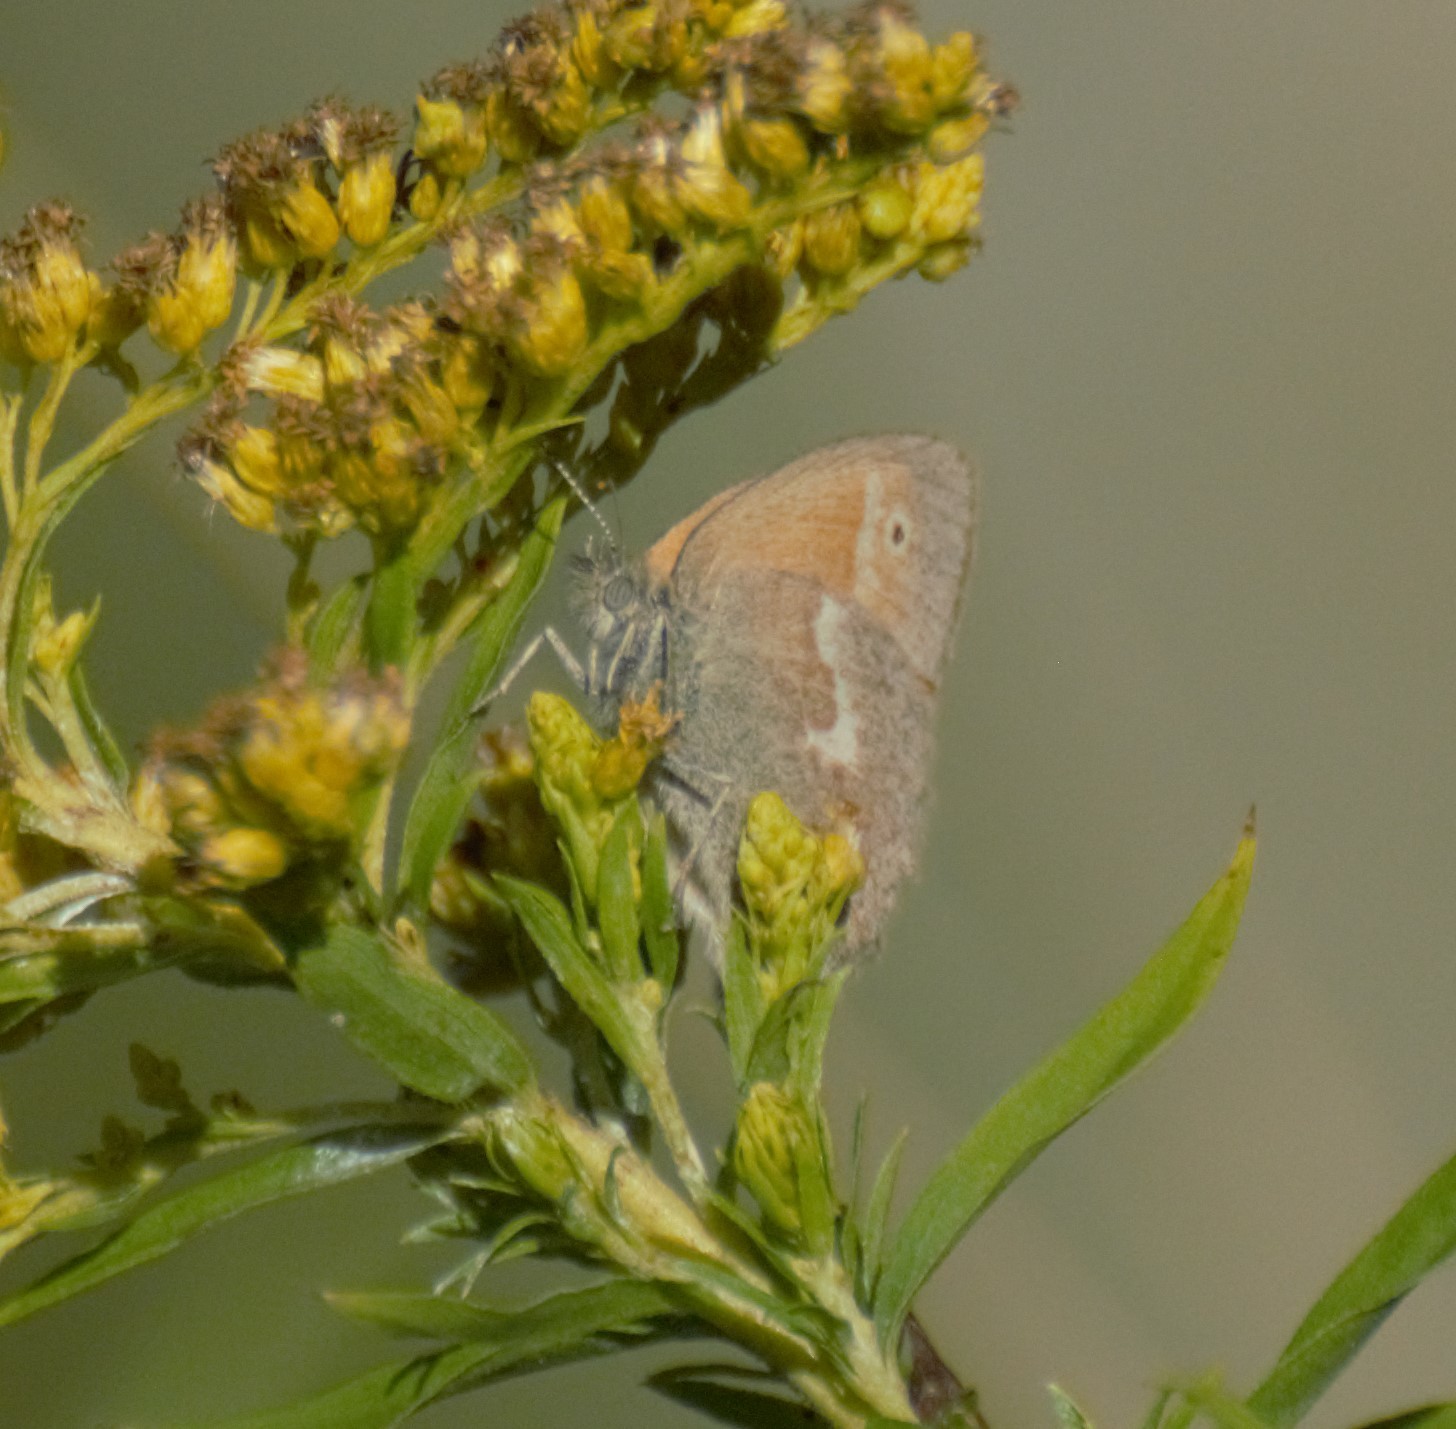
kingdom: Animalia
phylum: Arthropoda
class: Insecta
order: Lepidoptera
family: Nymphalidae
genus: Coenonympha
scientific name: Coenonympha california
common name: Common ringlet
